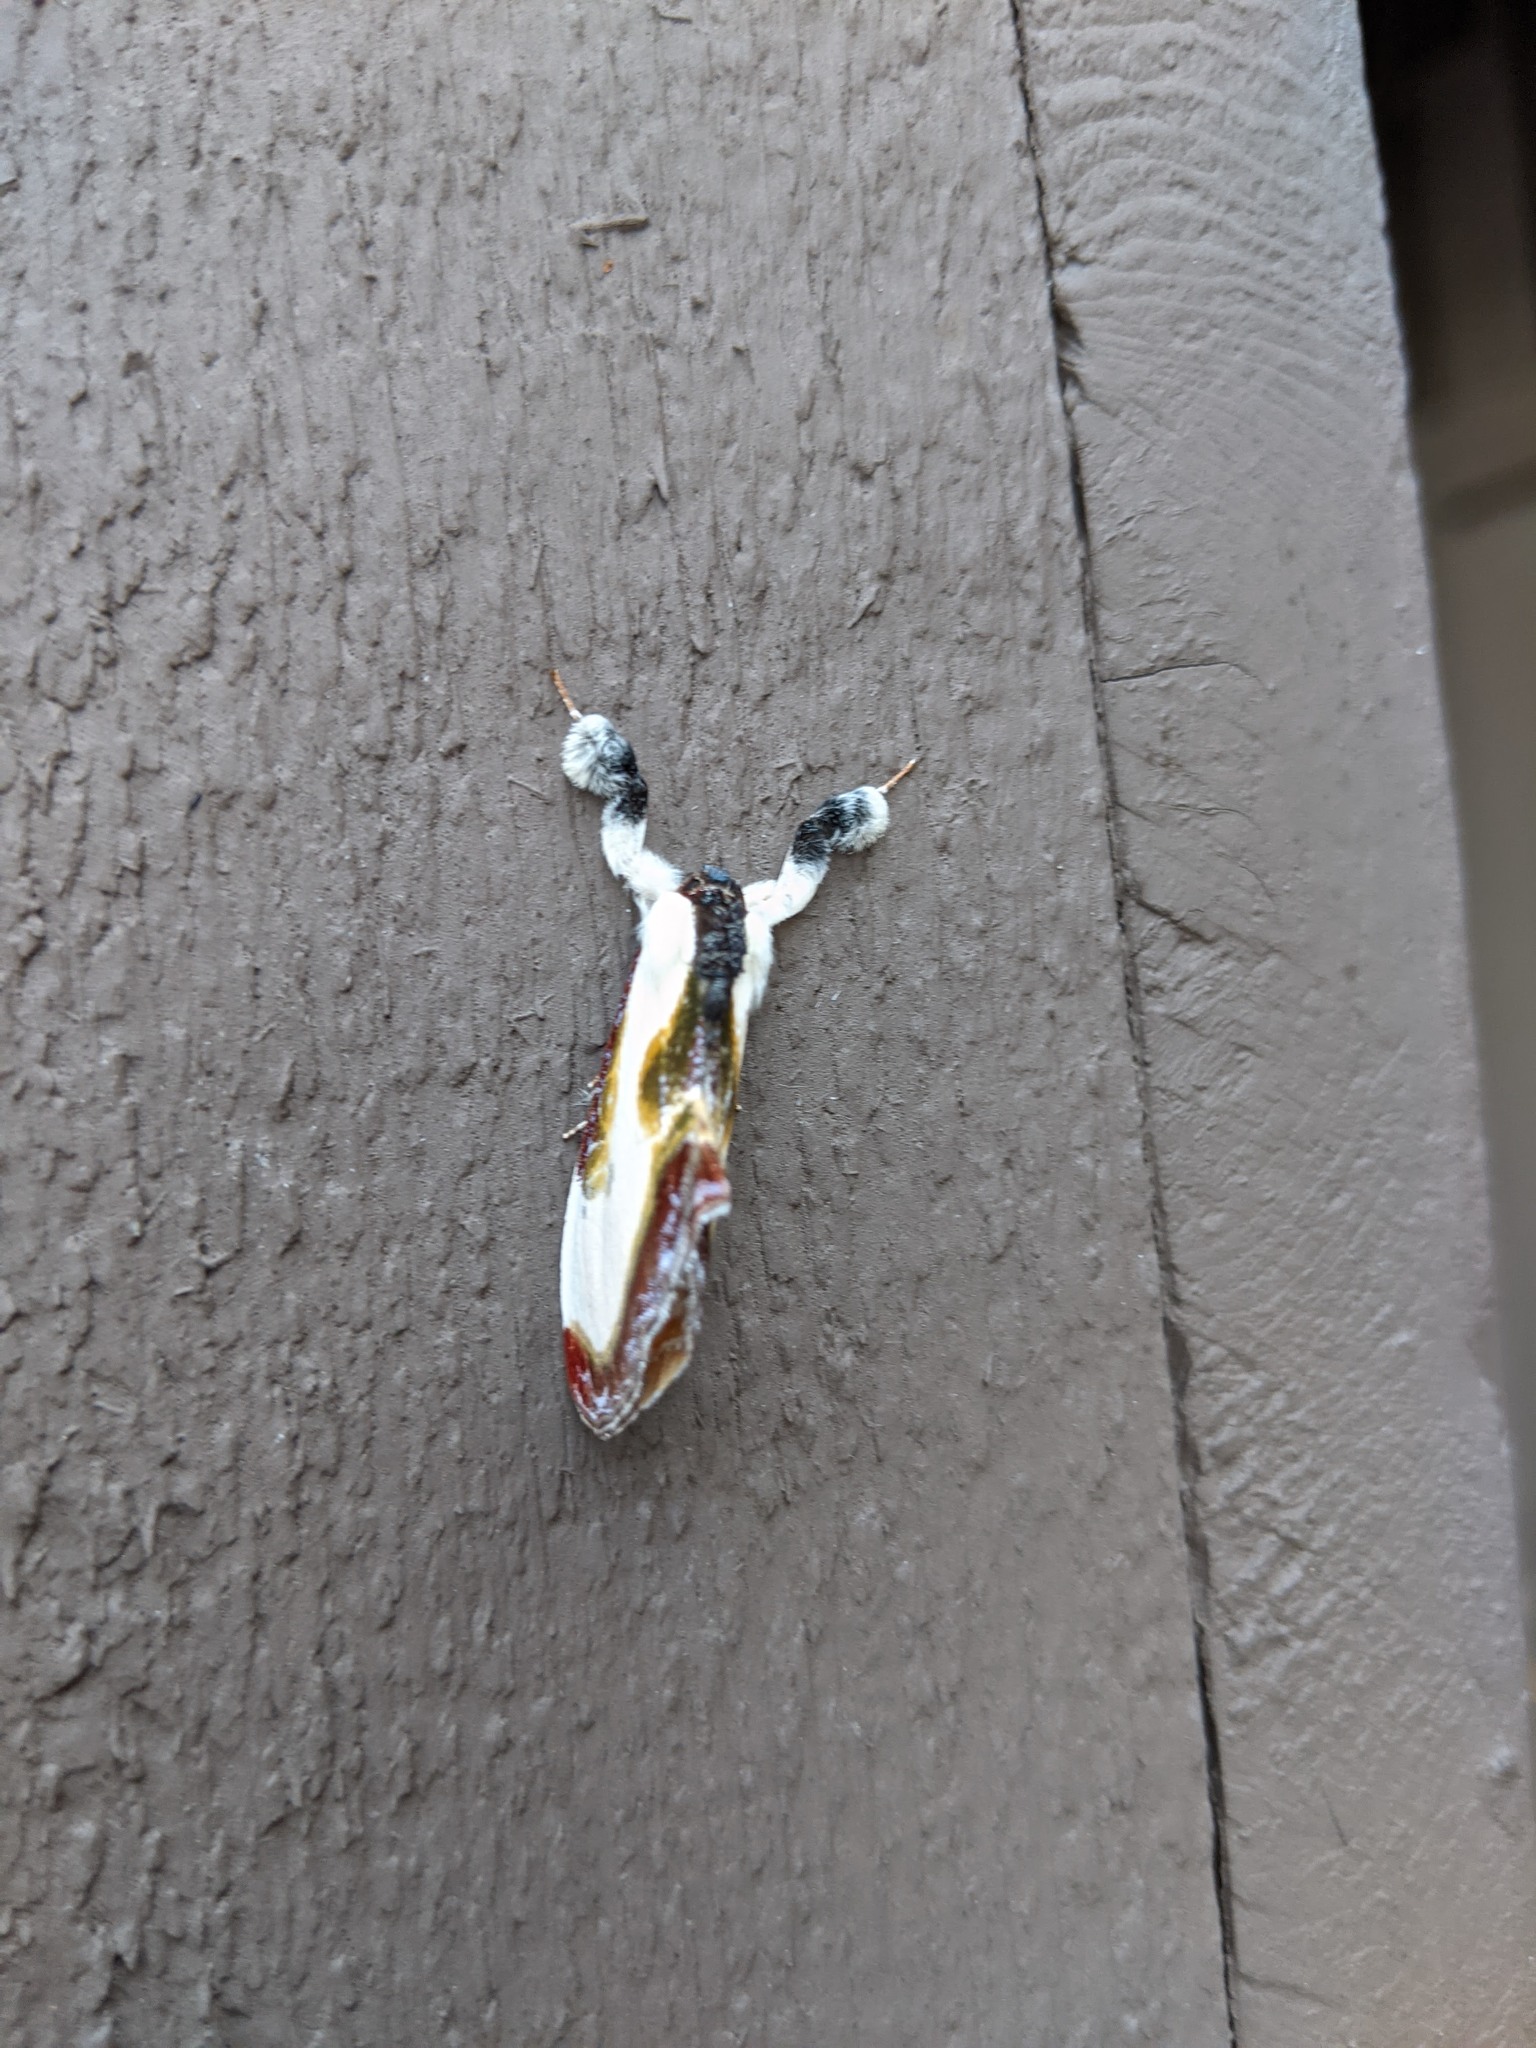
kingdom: Animalia
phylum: Arthropoda
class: Insecta
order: Lepidoptera
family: Noctuidae
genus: Eudryas
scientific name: Eudryas grata
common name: Beautiful wood-nymph
